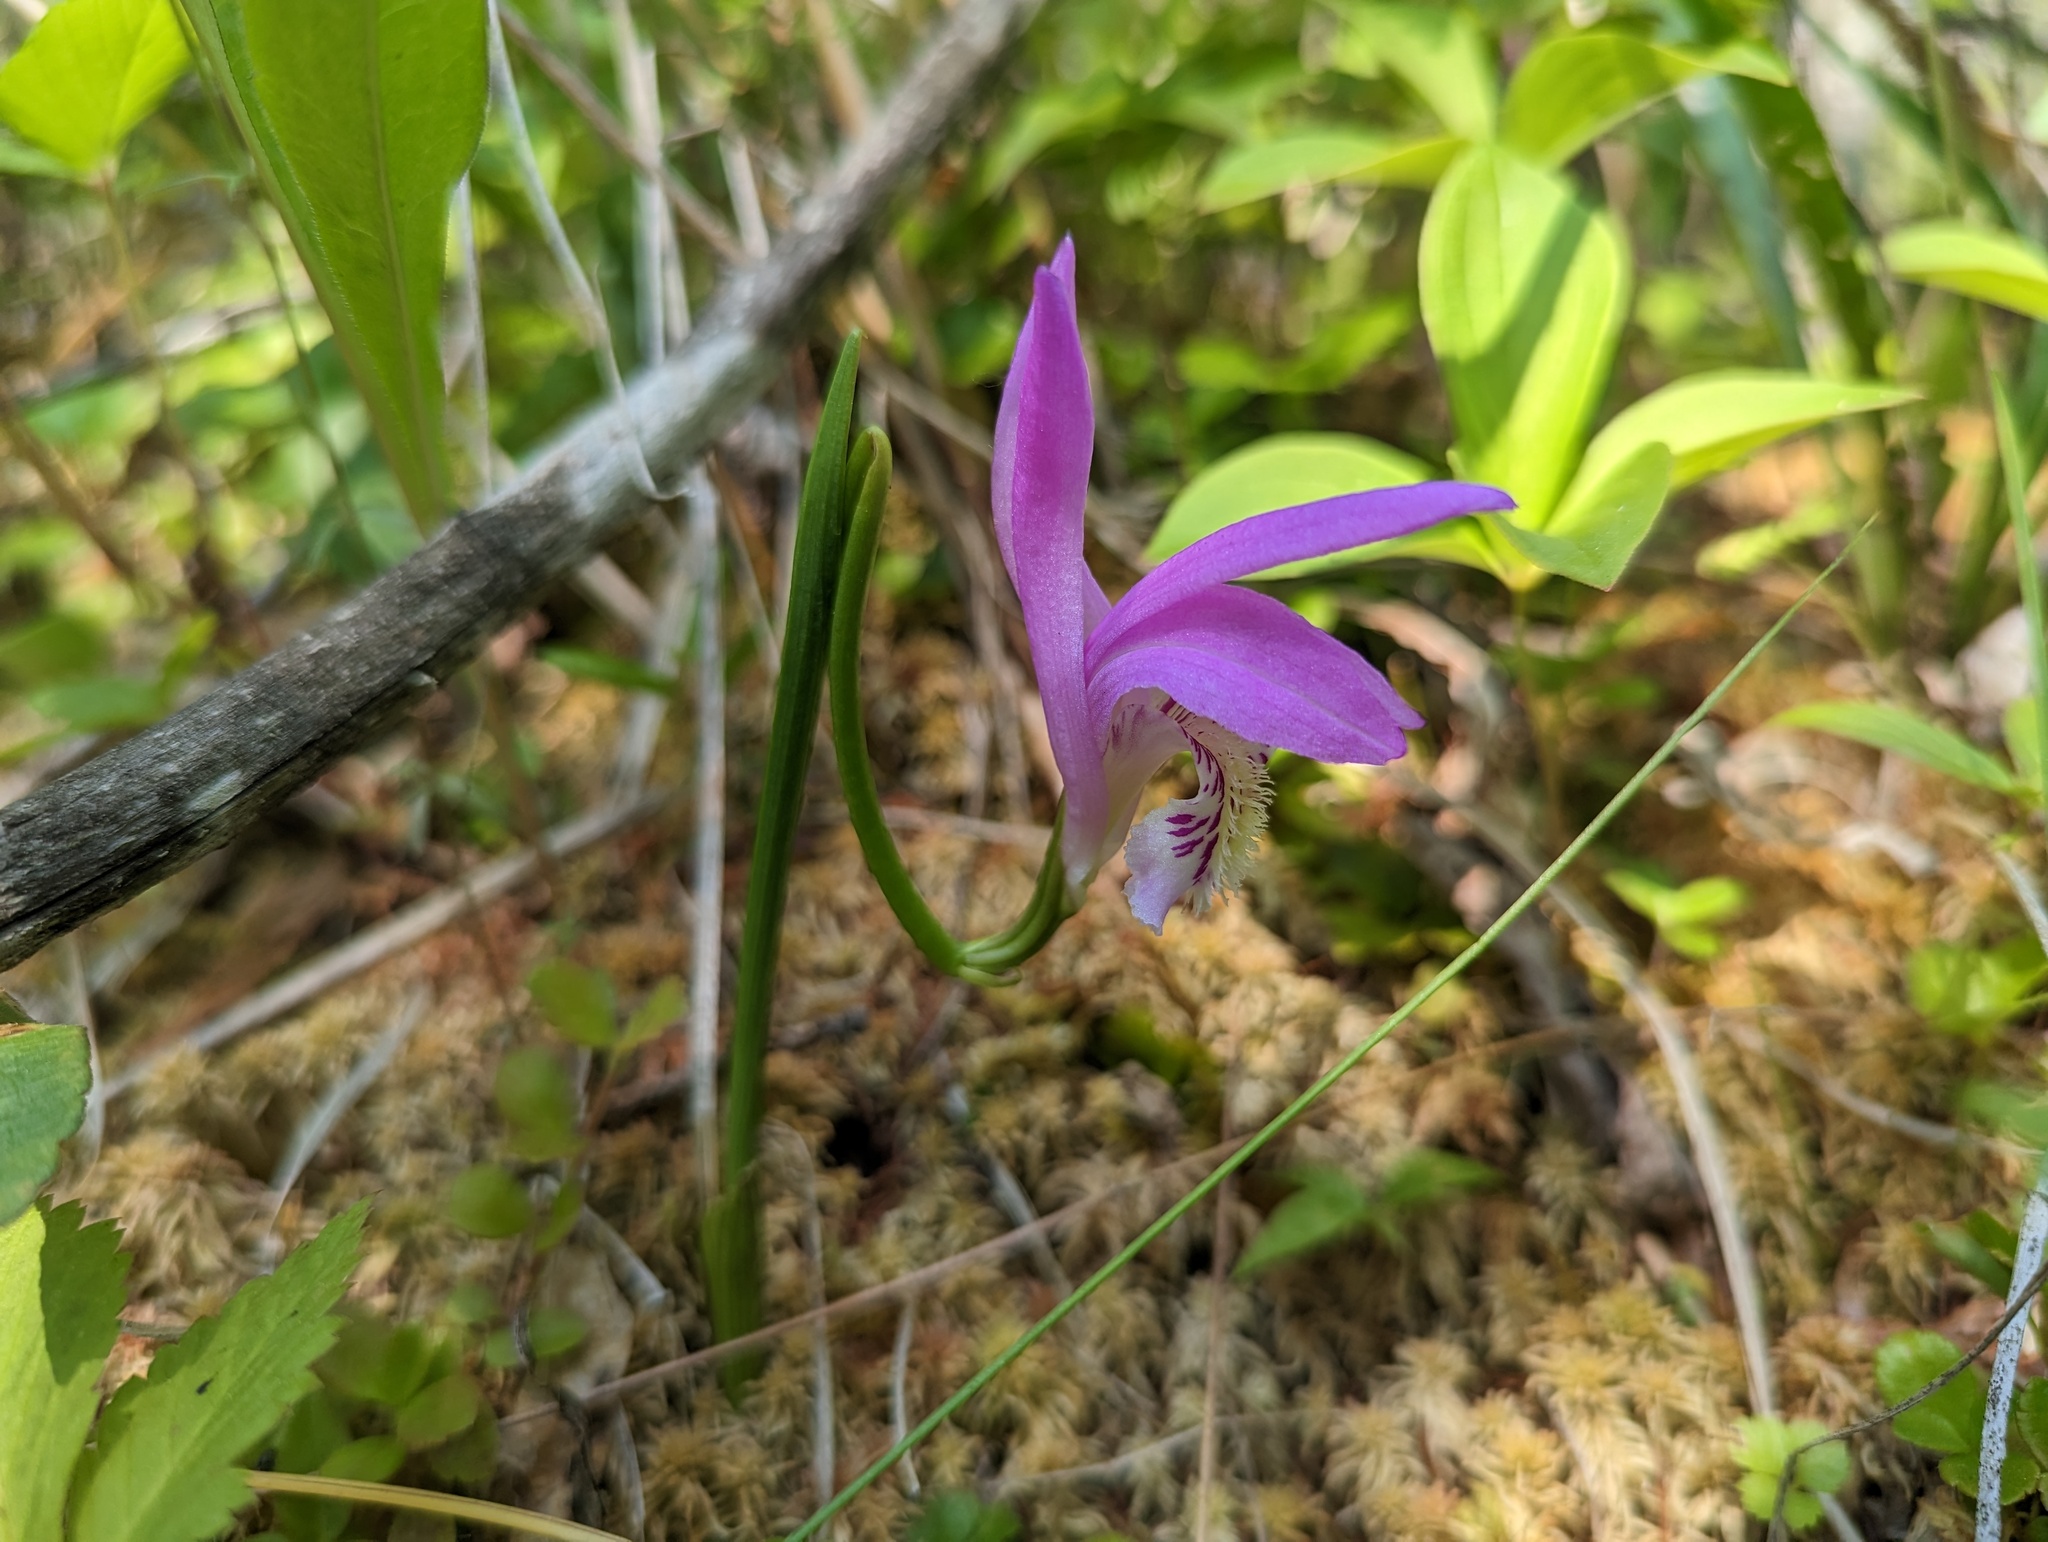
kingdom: Plantae
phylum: Tracheophyta
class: Liliopsida
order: Asparagales
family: Orchidaceae
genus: Arethusa
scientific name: Arethusa bulbosa
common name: Arethusa
